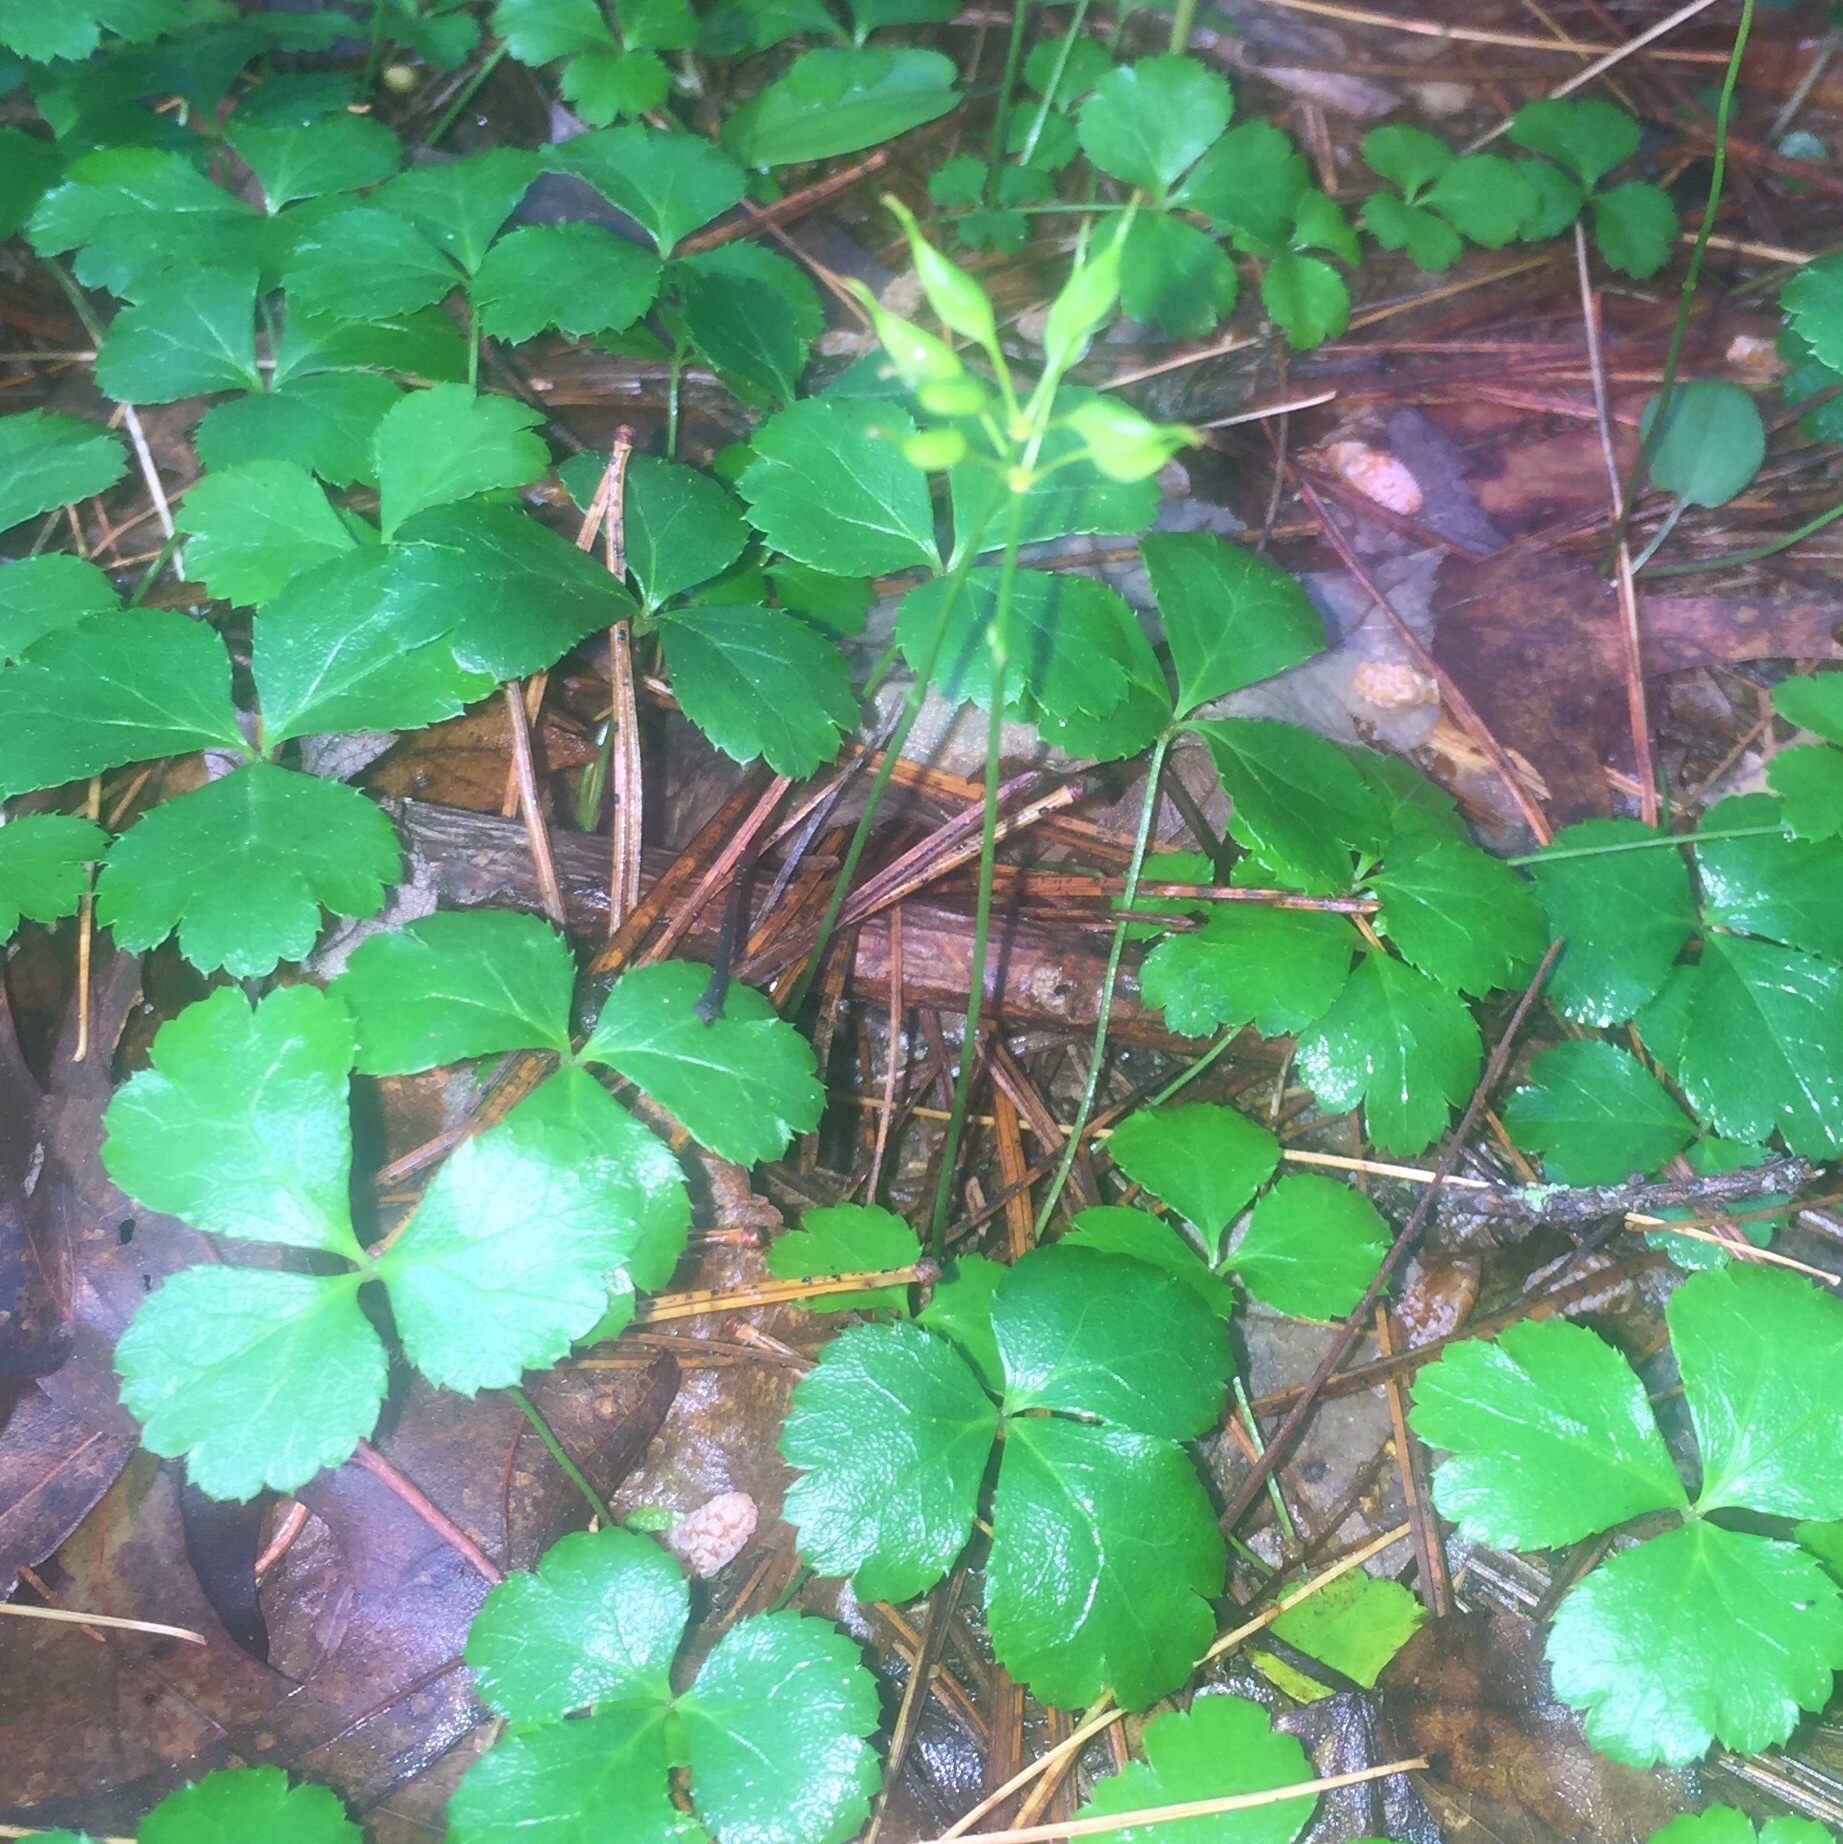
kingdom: Plantae
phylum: Tracheophyta
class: Magnoliopsida
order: Ranunculales
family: Ranunculaceae
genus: Coptis
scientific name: Coptis trifolia
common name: Canker-root
